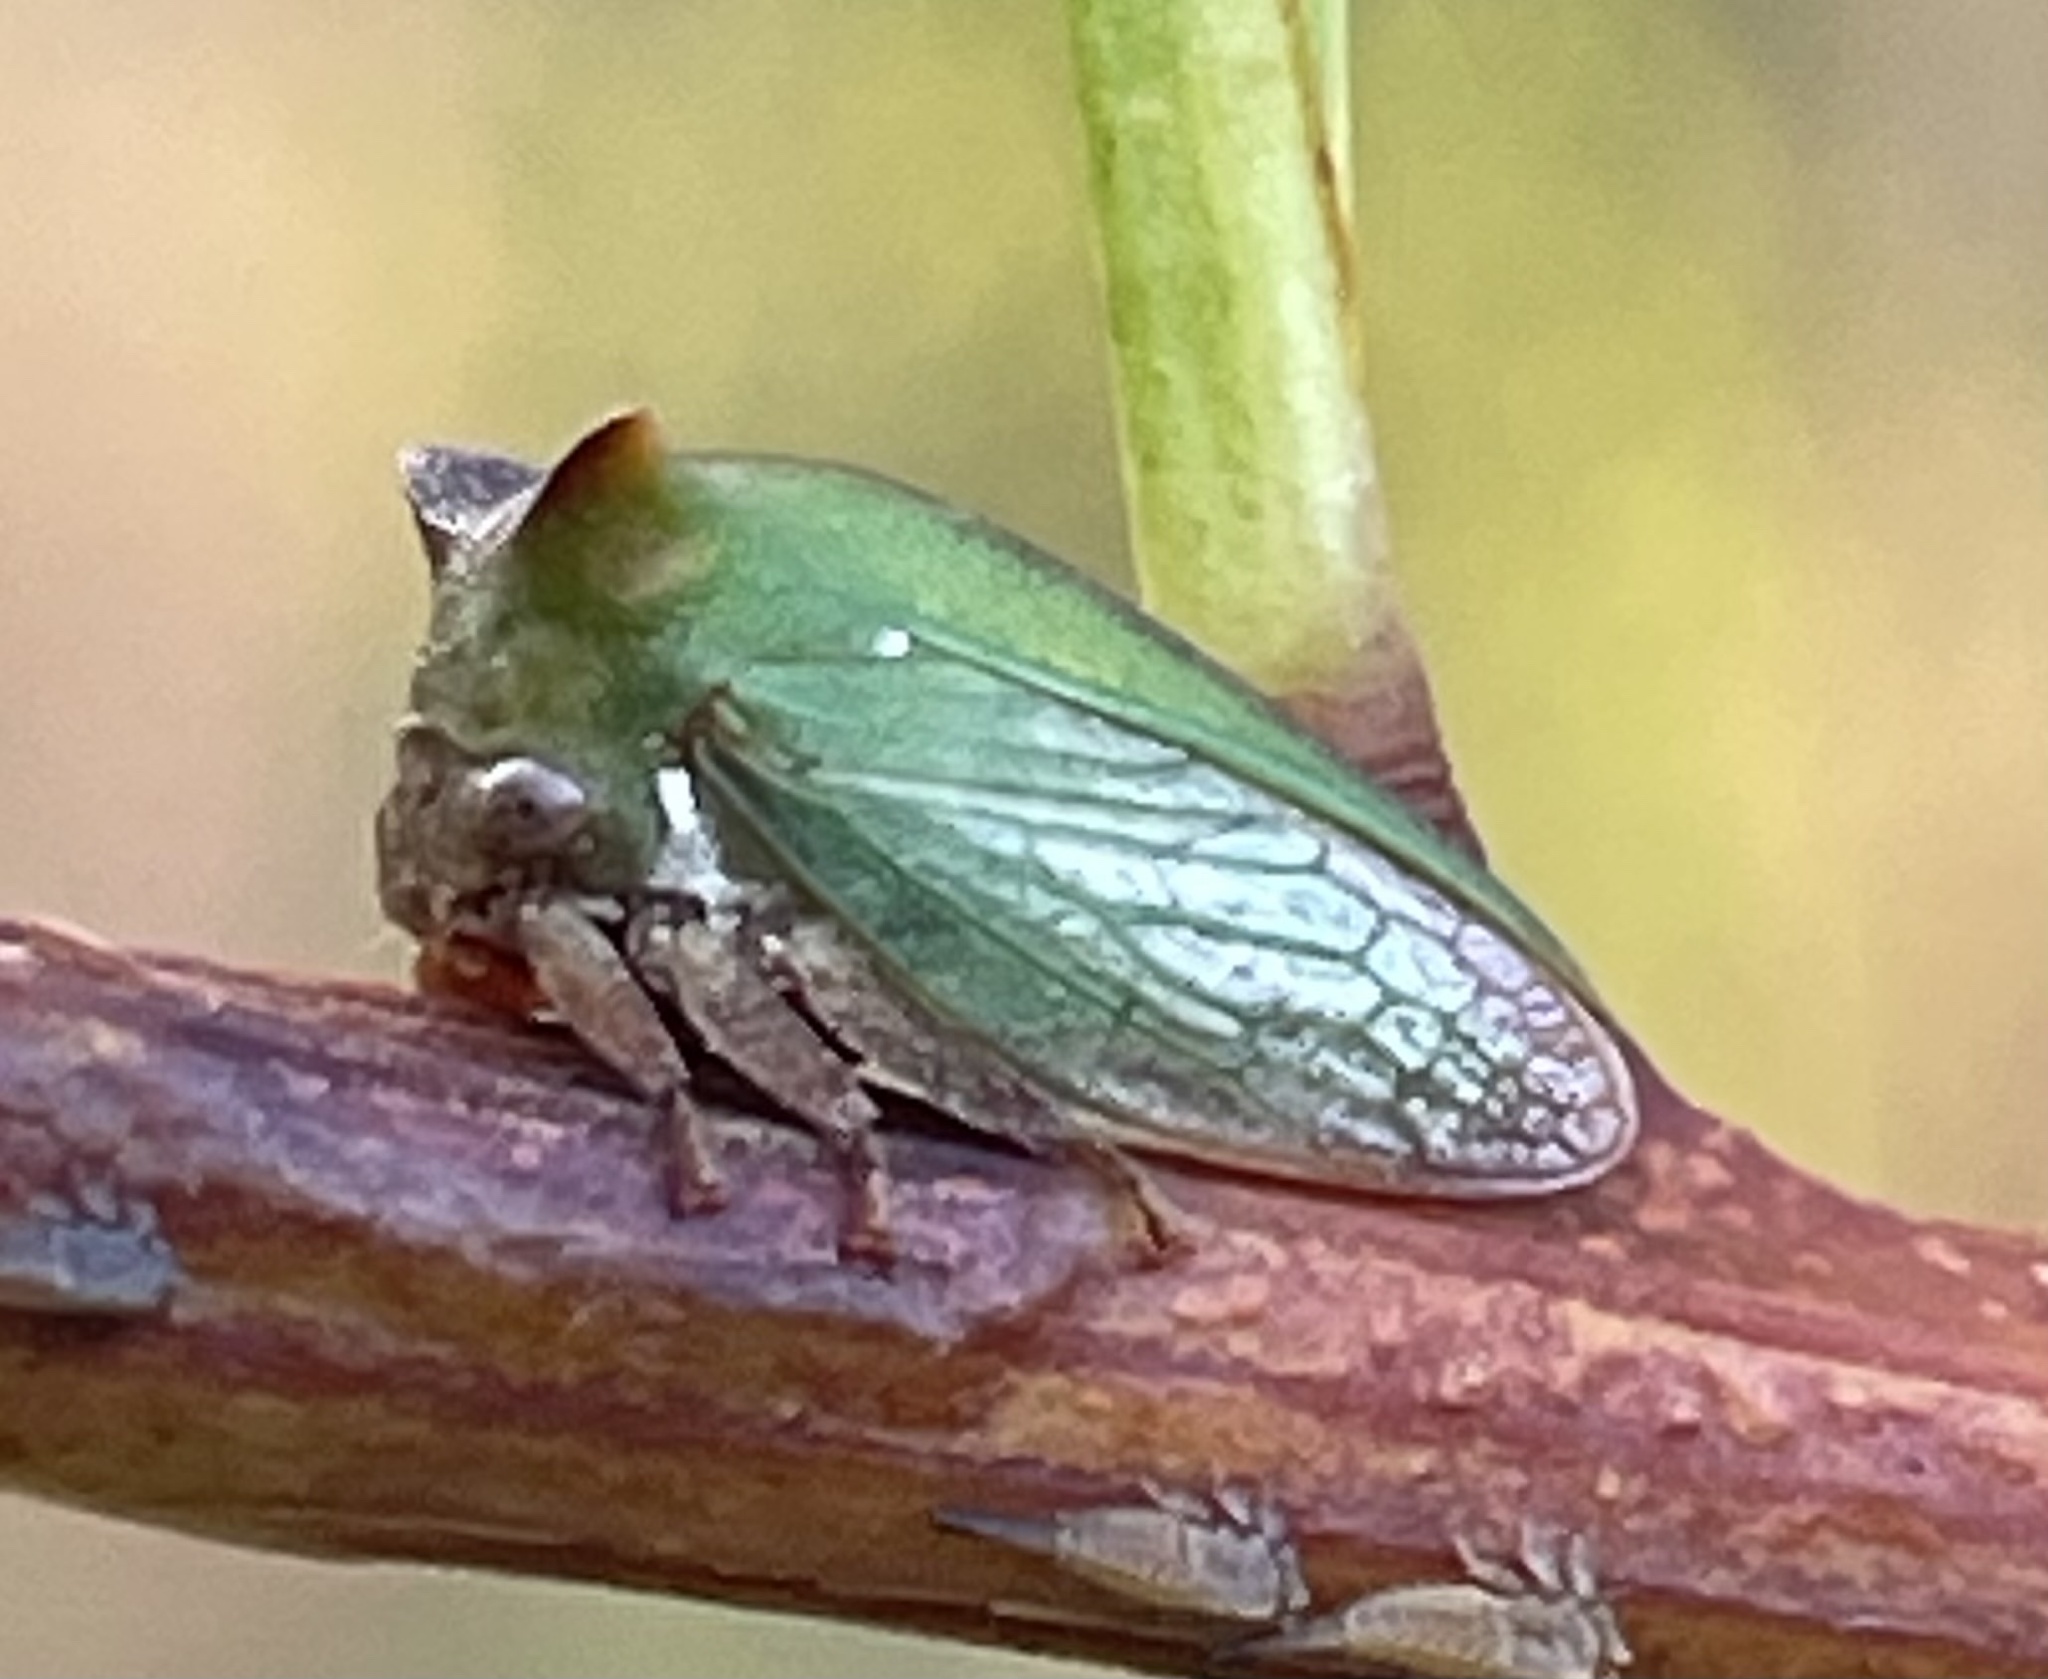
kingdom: Animalia
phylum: Arthropoda
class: Insecta
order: Hemiptera
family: Membracidae
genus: Sextius
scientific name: Sextius virescens
